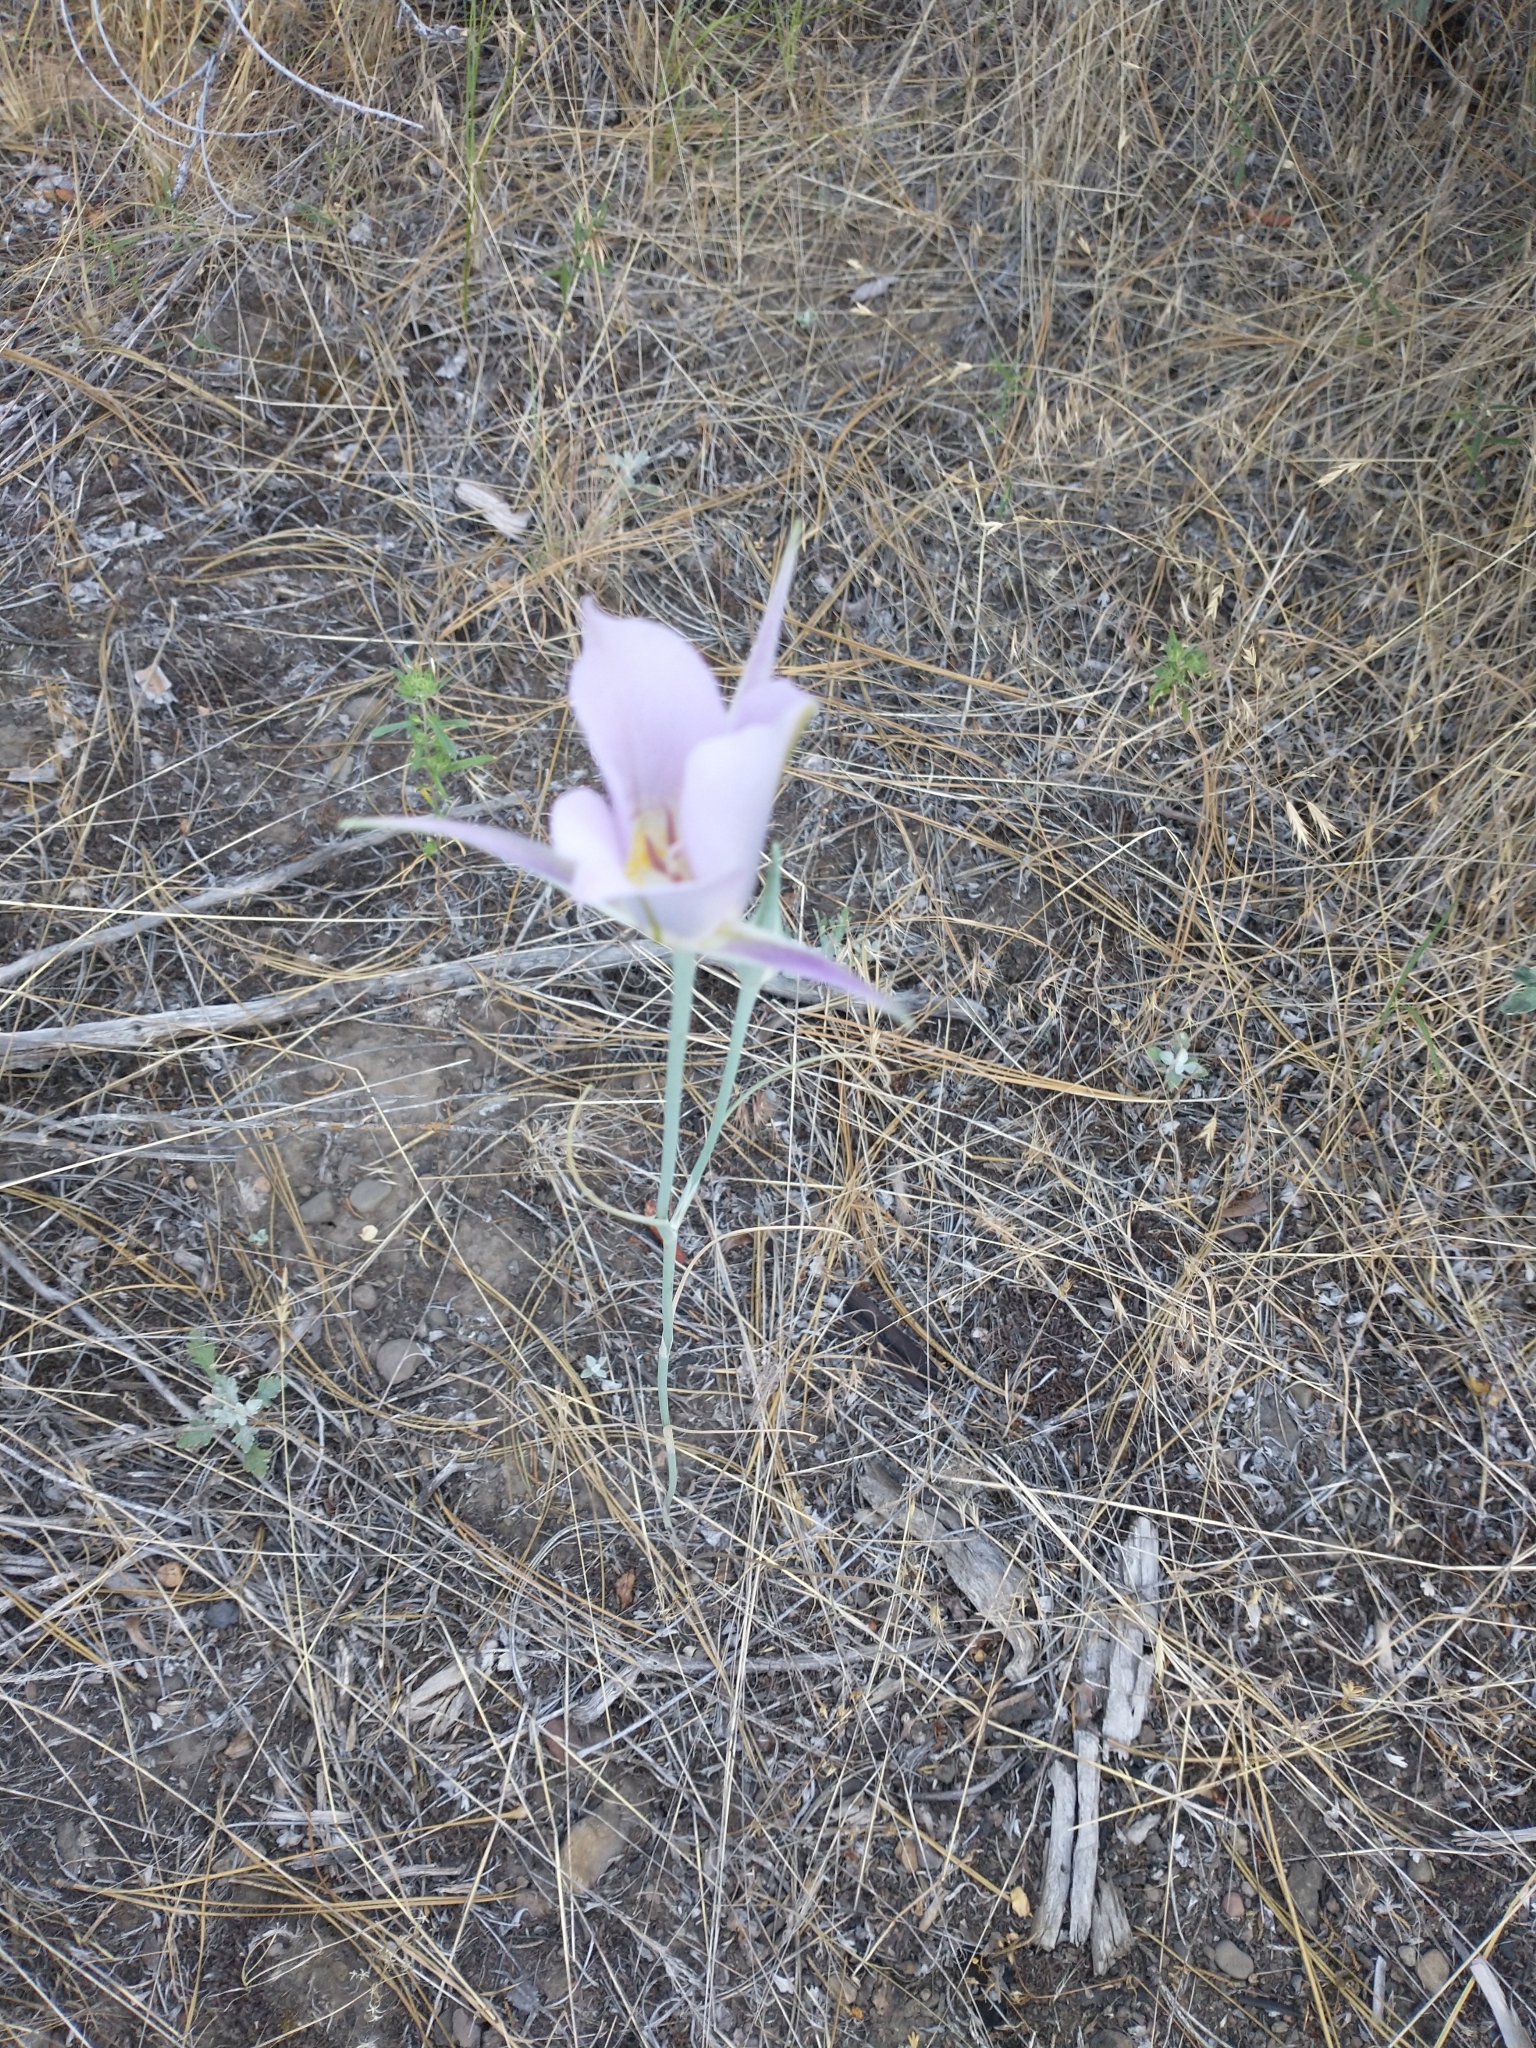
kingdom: Plantae
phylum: Tracheophyta
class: Liliopsida
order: Liliales
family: Liliaceae
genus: Calochortus
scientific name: Calochortus macrocarpus
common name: Green-band mariposa lily
